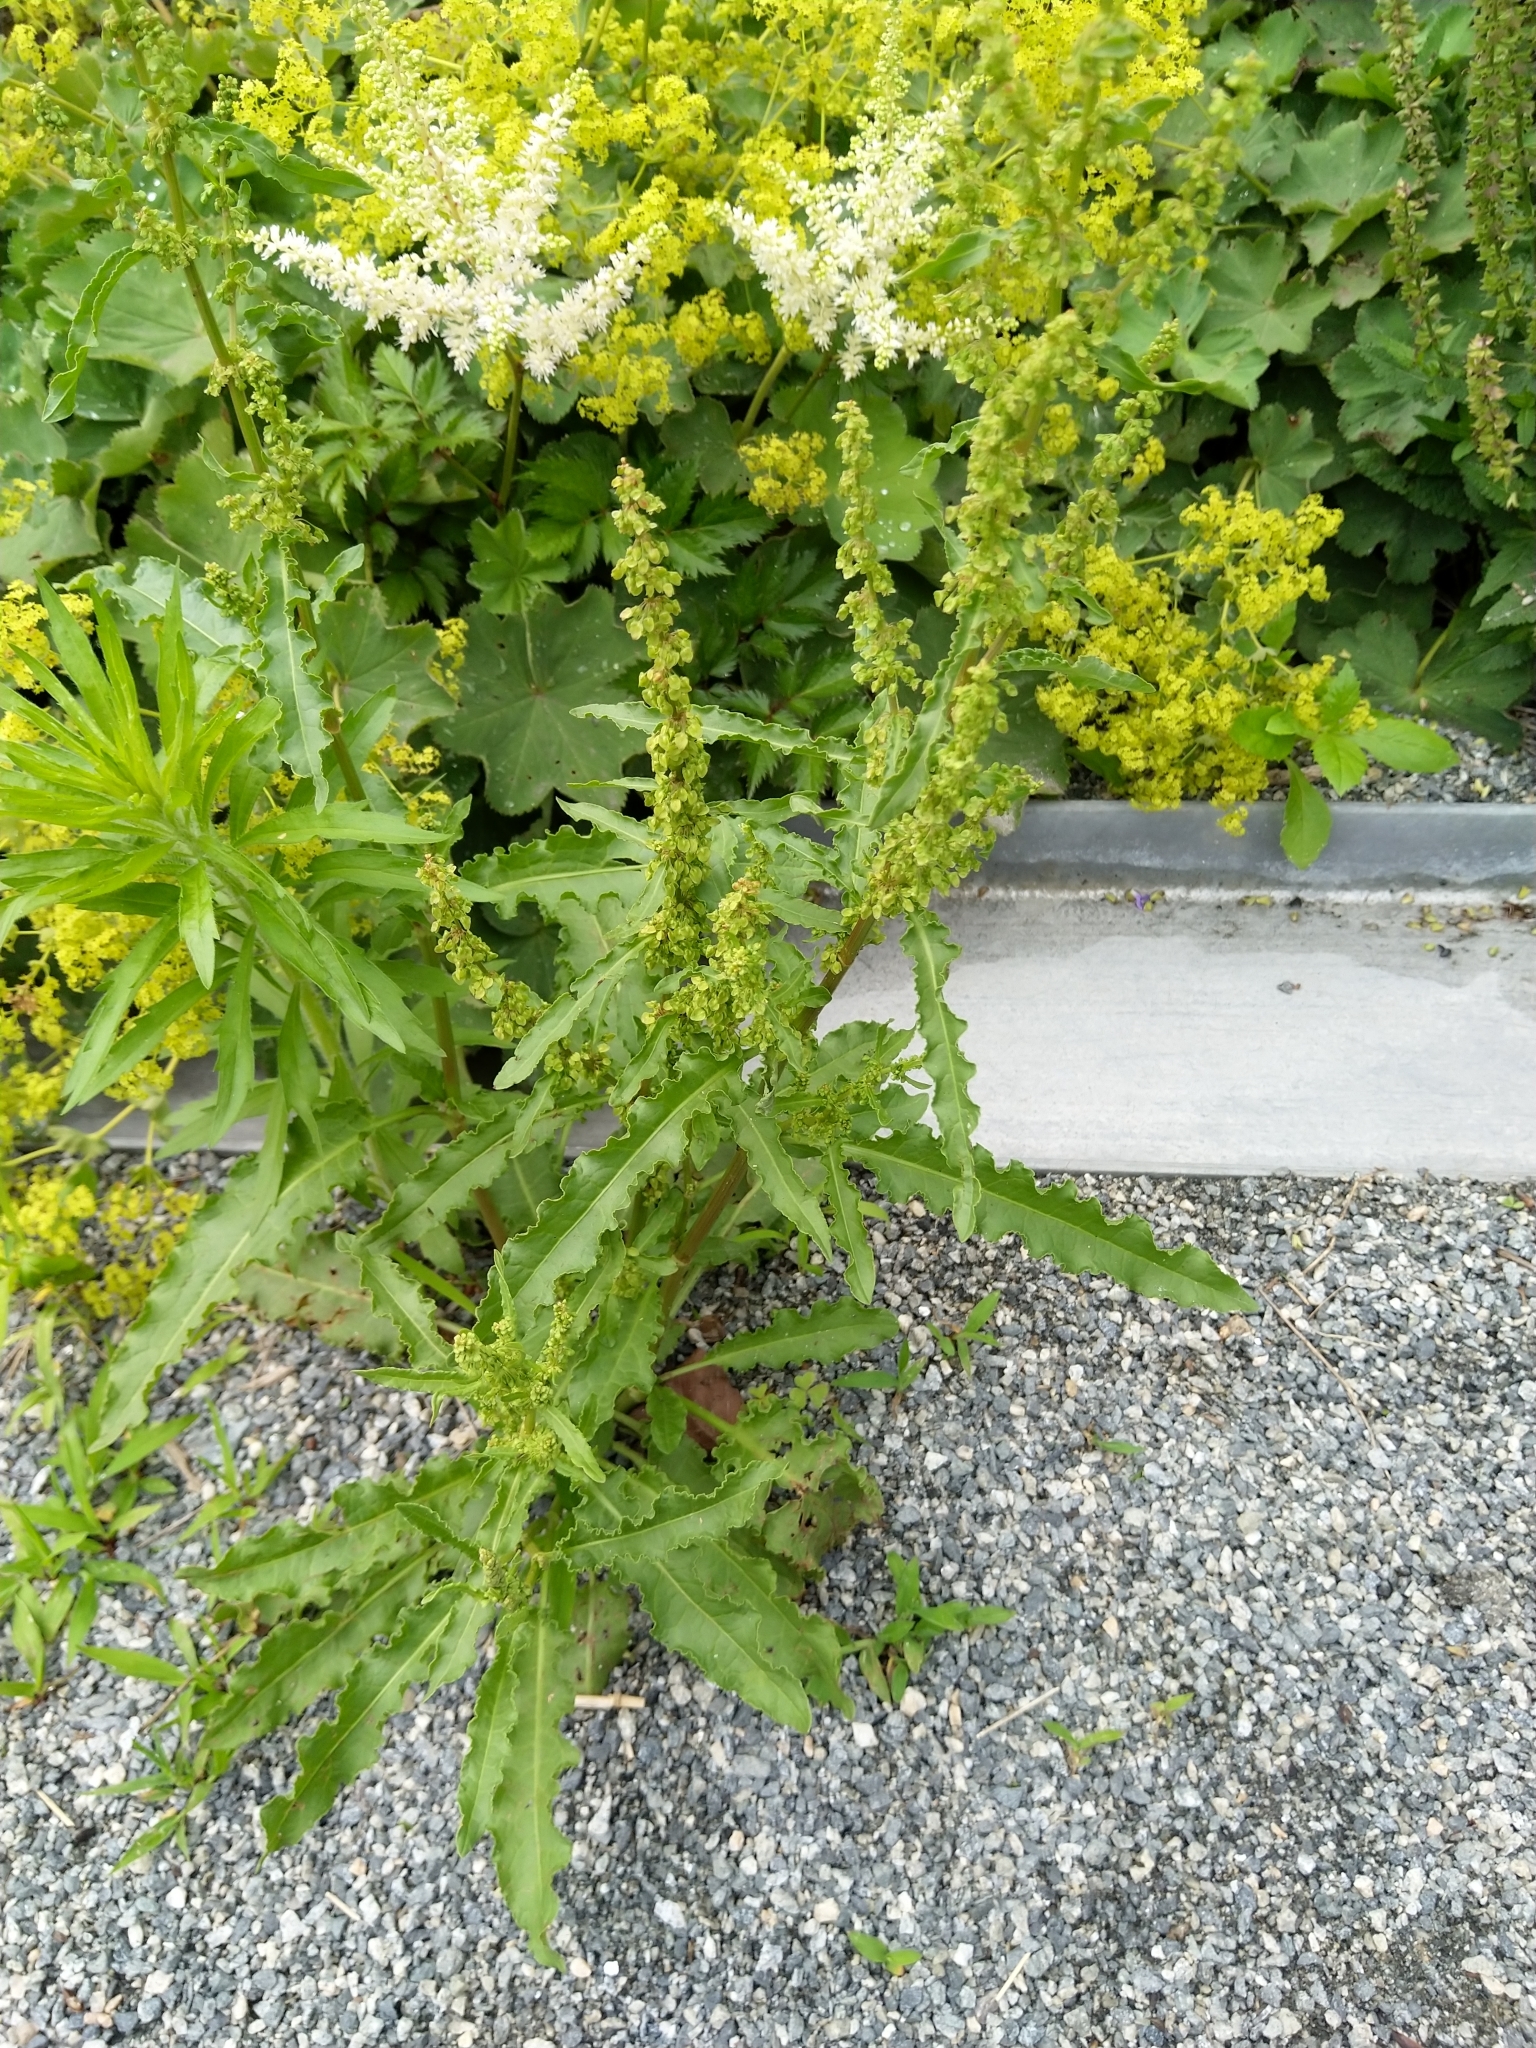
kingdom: Plantae
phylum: Tracheophyta
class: Magnoliopsida
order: Caryophyllales
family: Polygonaceae
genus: Rumex
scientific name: Rumex crispus
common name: Curled dock
